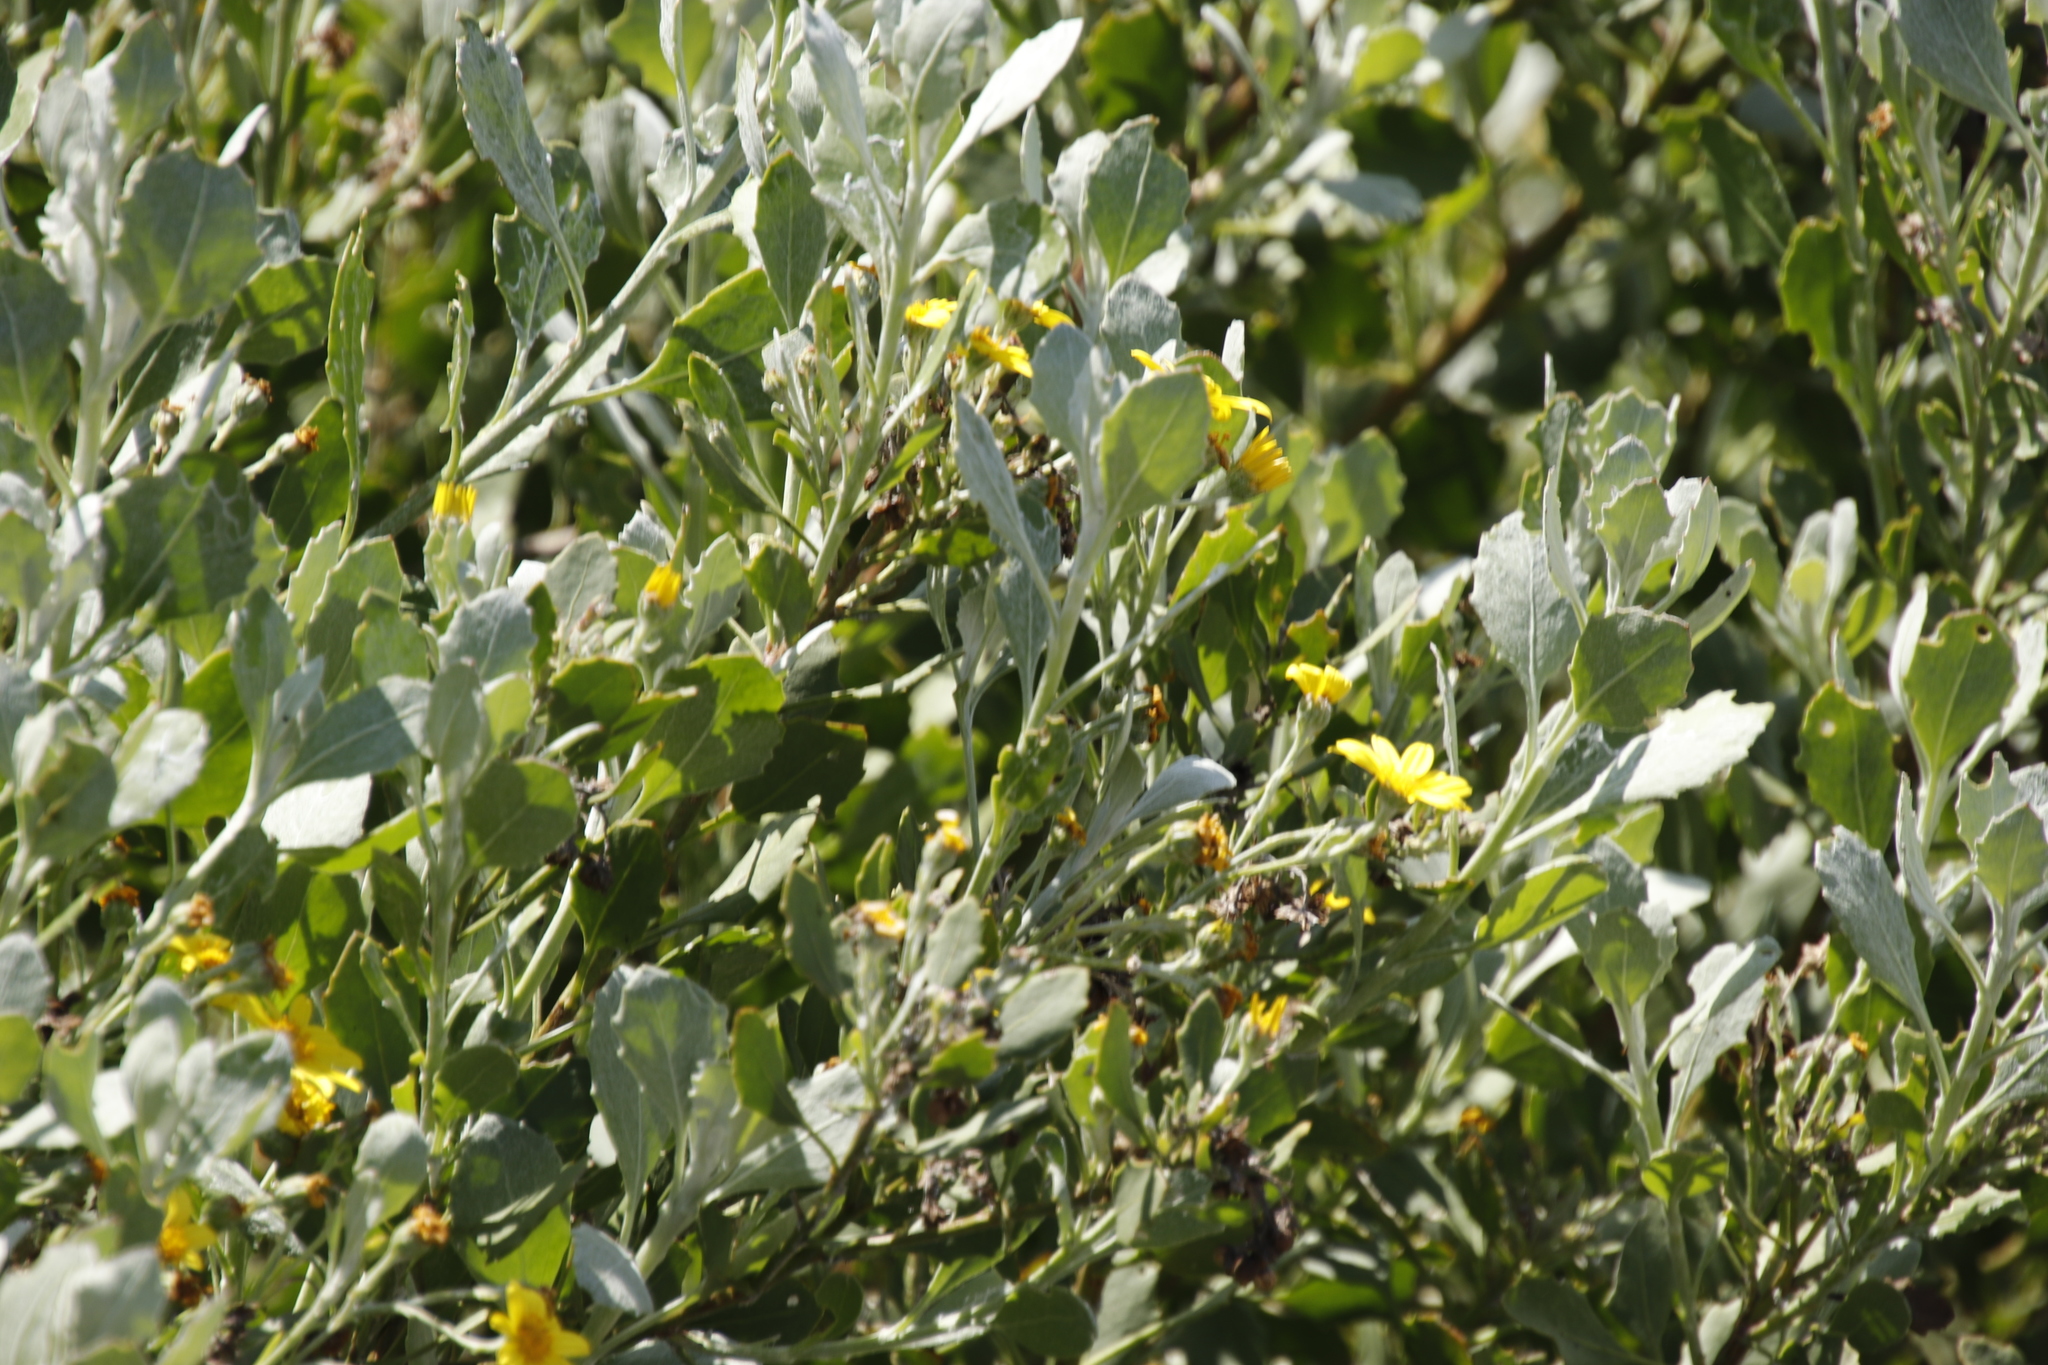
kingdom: Plantae
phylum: Tracheophyta
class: Magnoliopsida
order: Asterales
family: Asteraceae
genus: Osteospermum
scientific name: Osteospermum moniliferum
